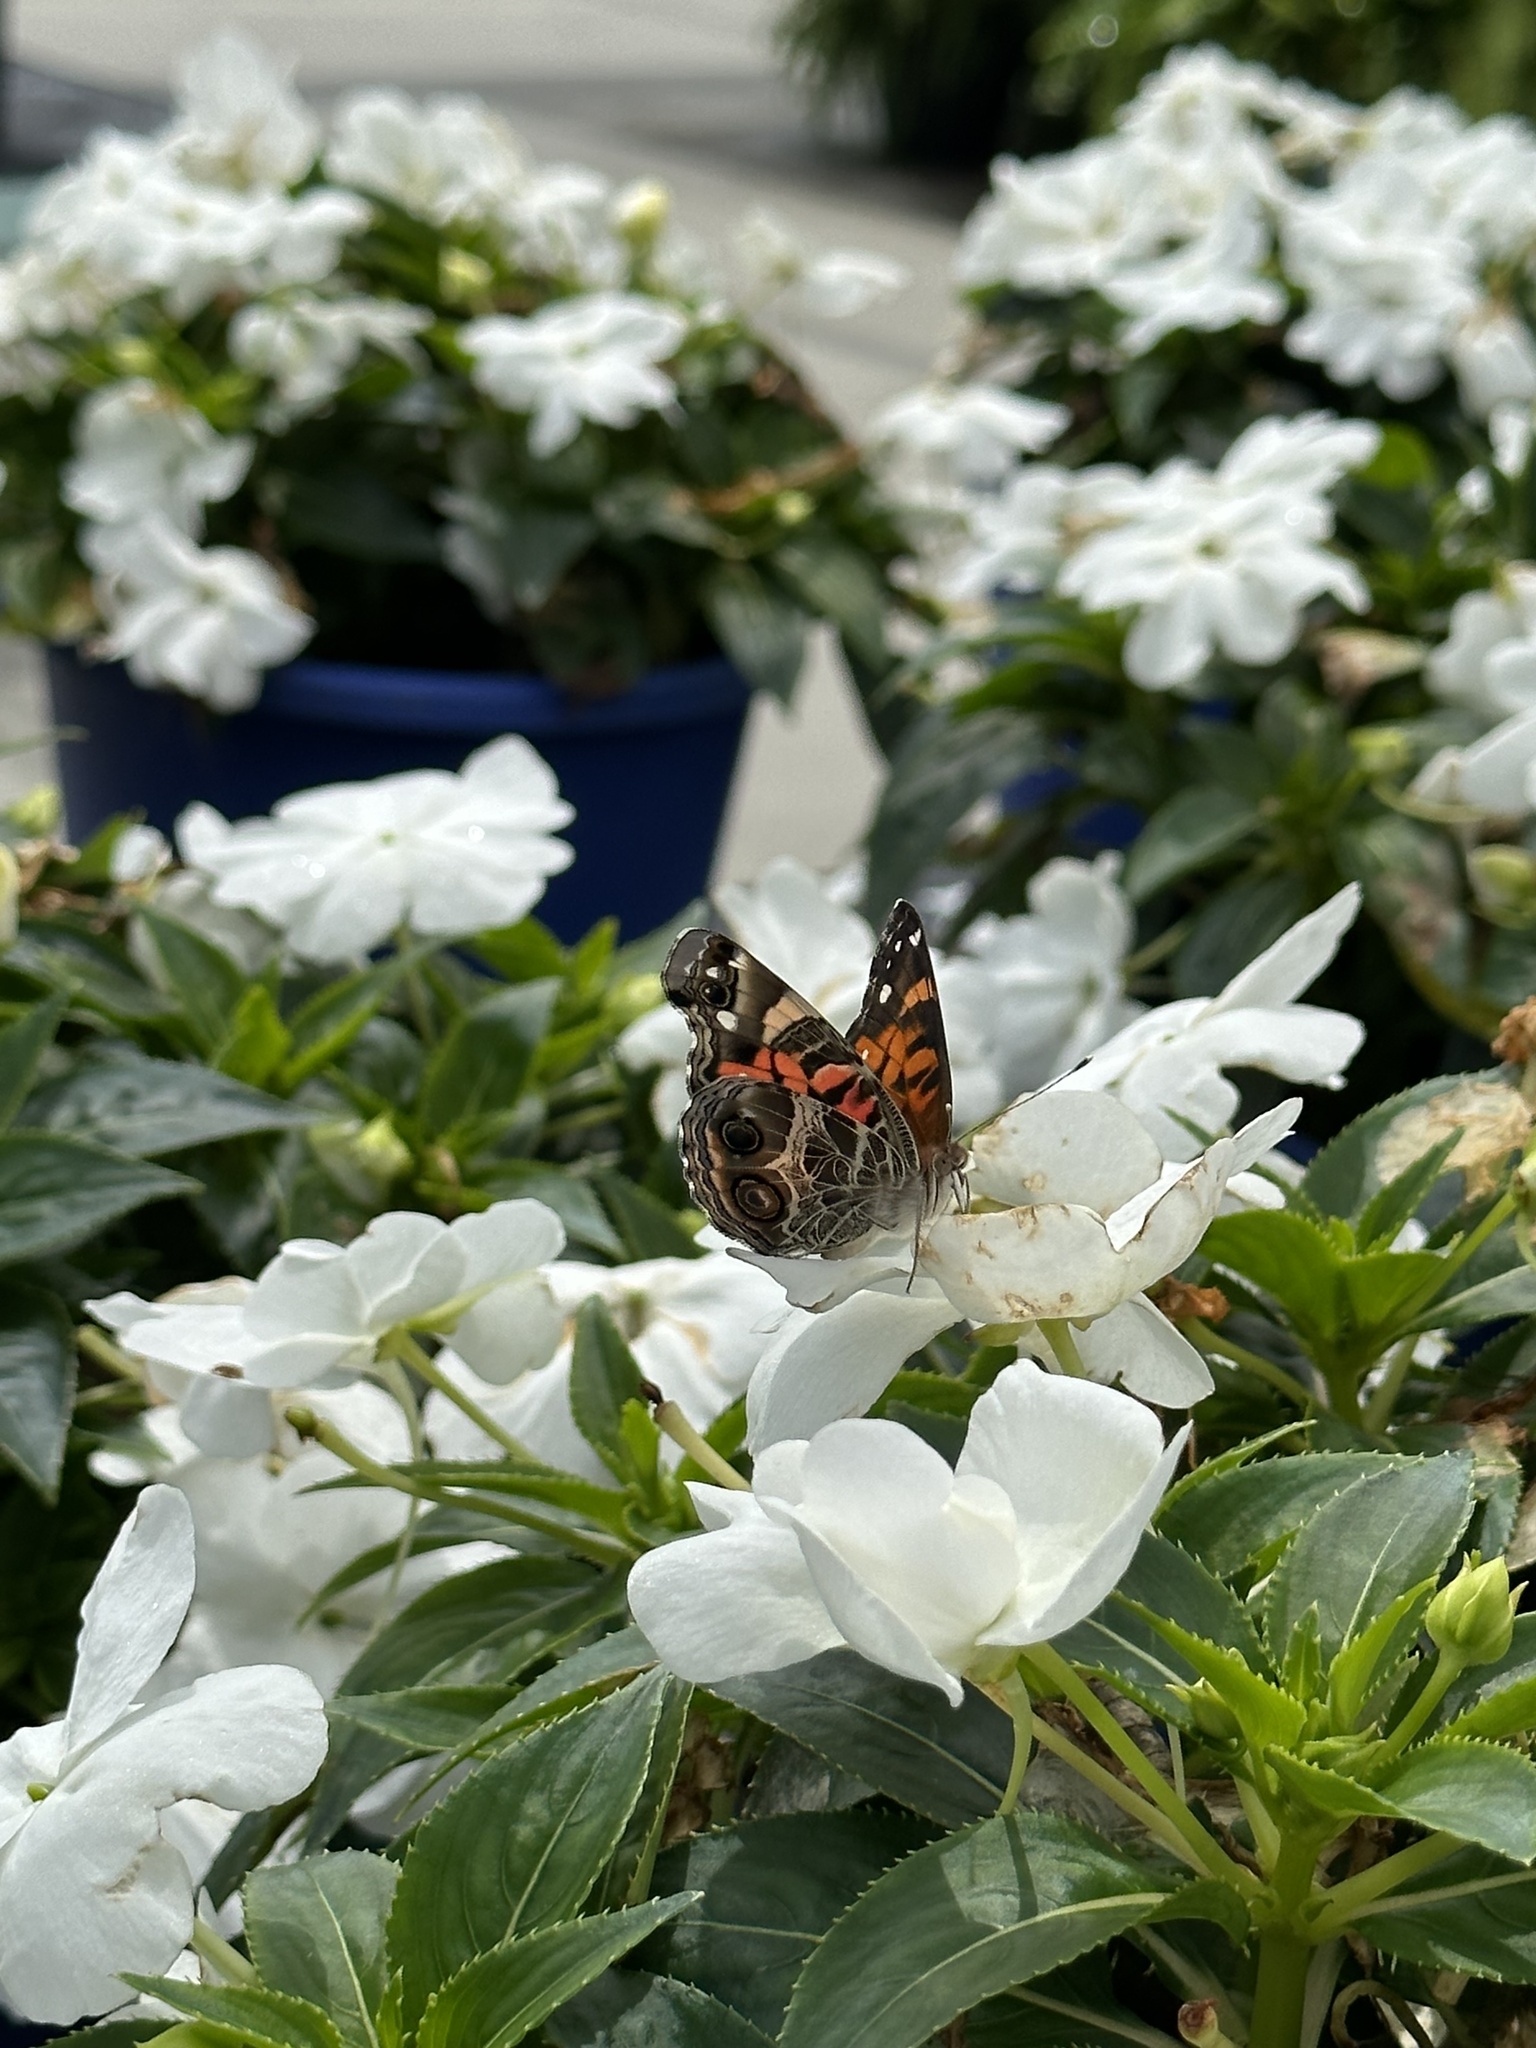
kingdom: Animalia
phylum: Arthropoda
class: Insecta
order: Lepidoptera
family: Nymphalidae
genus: Vanessa
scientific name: Vanessa virginiensis
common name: American lady
